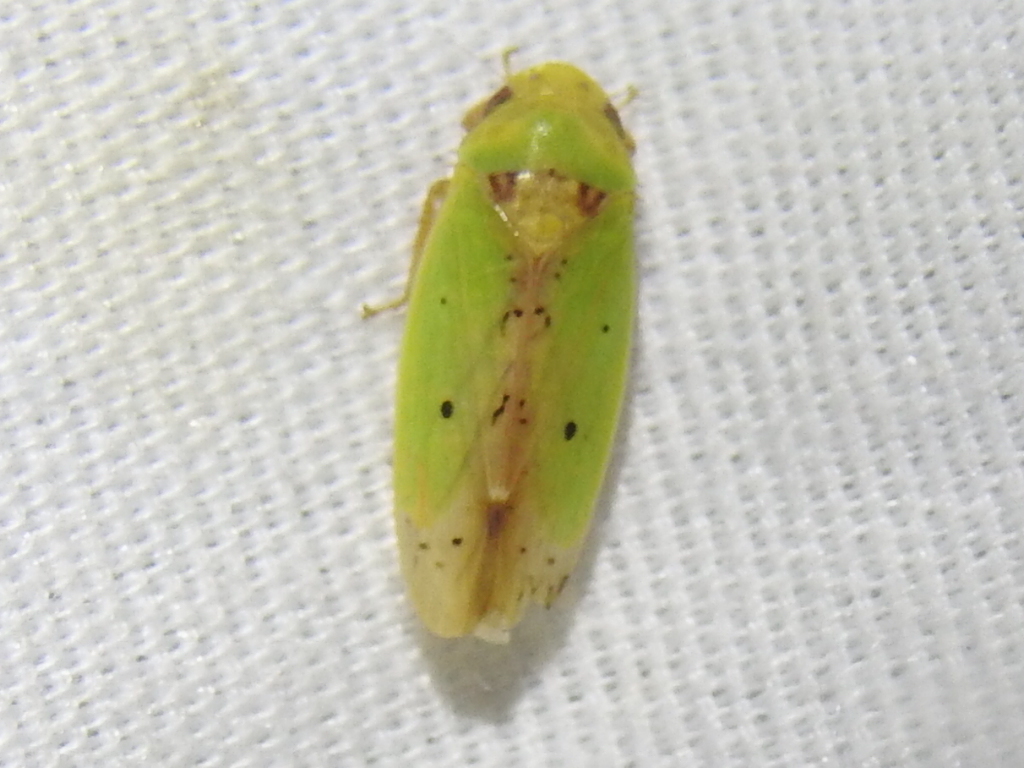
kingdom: Animalia
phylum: Arthropoda
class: Insecta
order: Hemiptera
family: Cicadellidae
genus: Ponana
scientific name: Ponana
